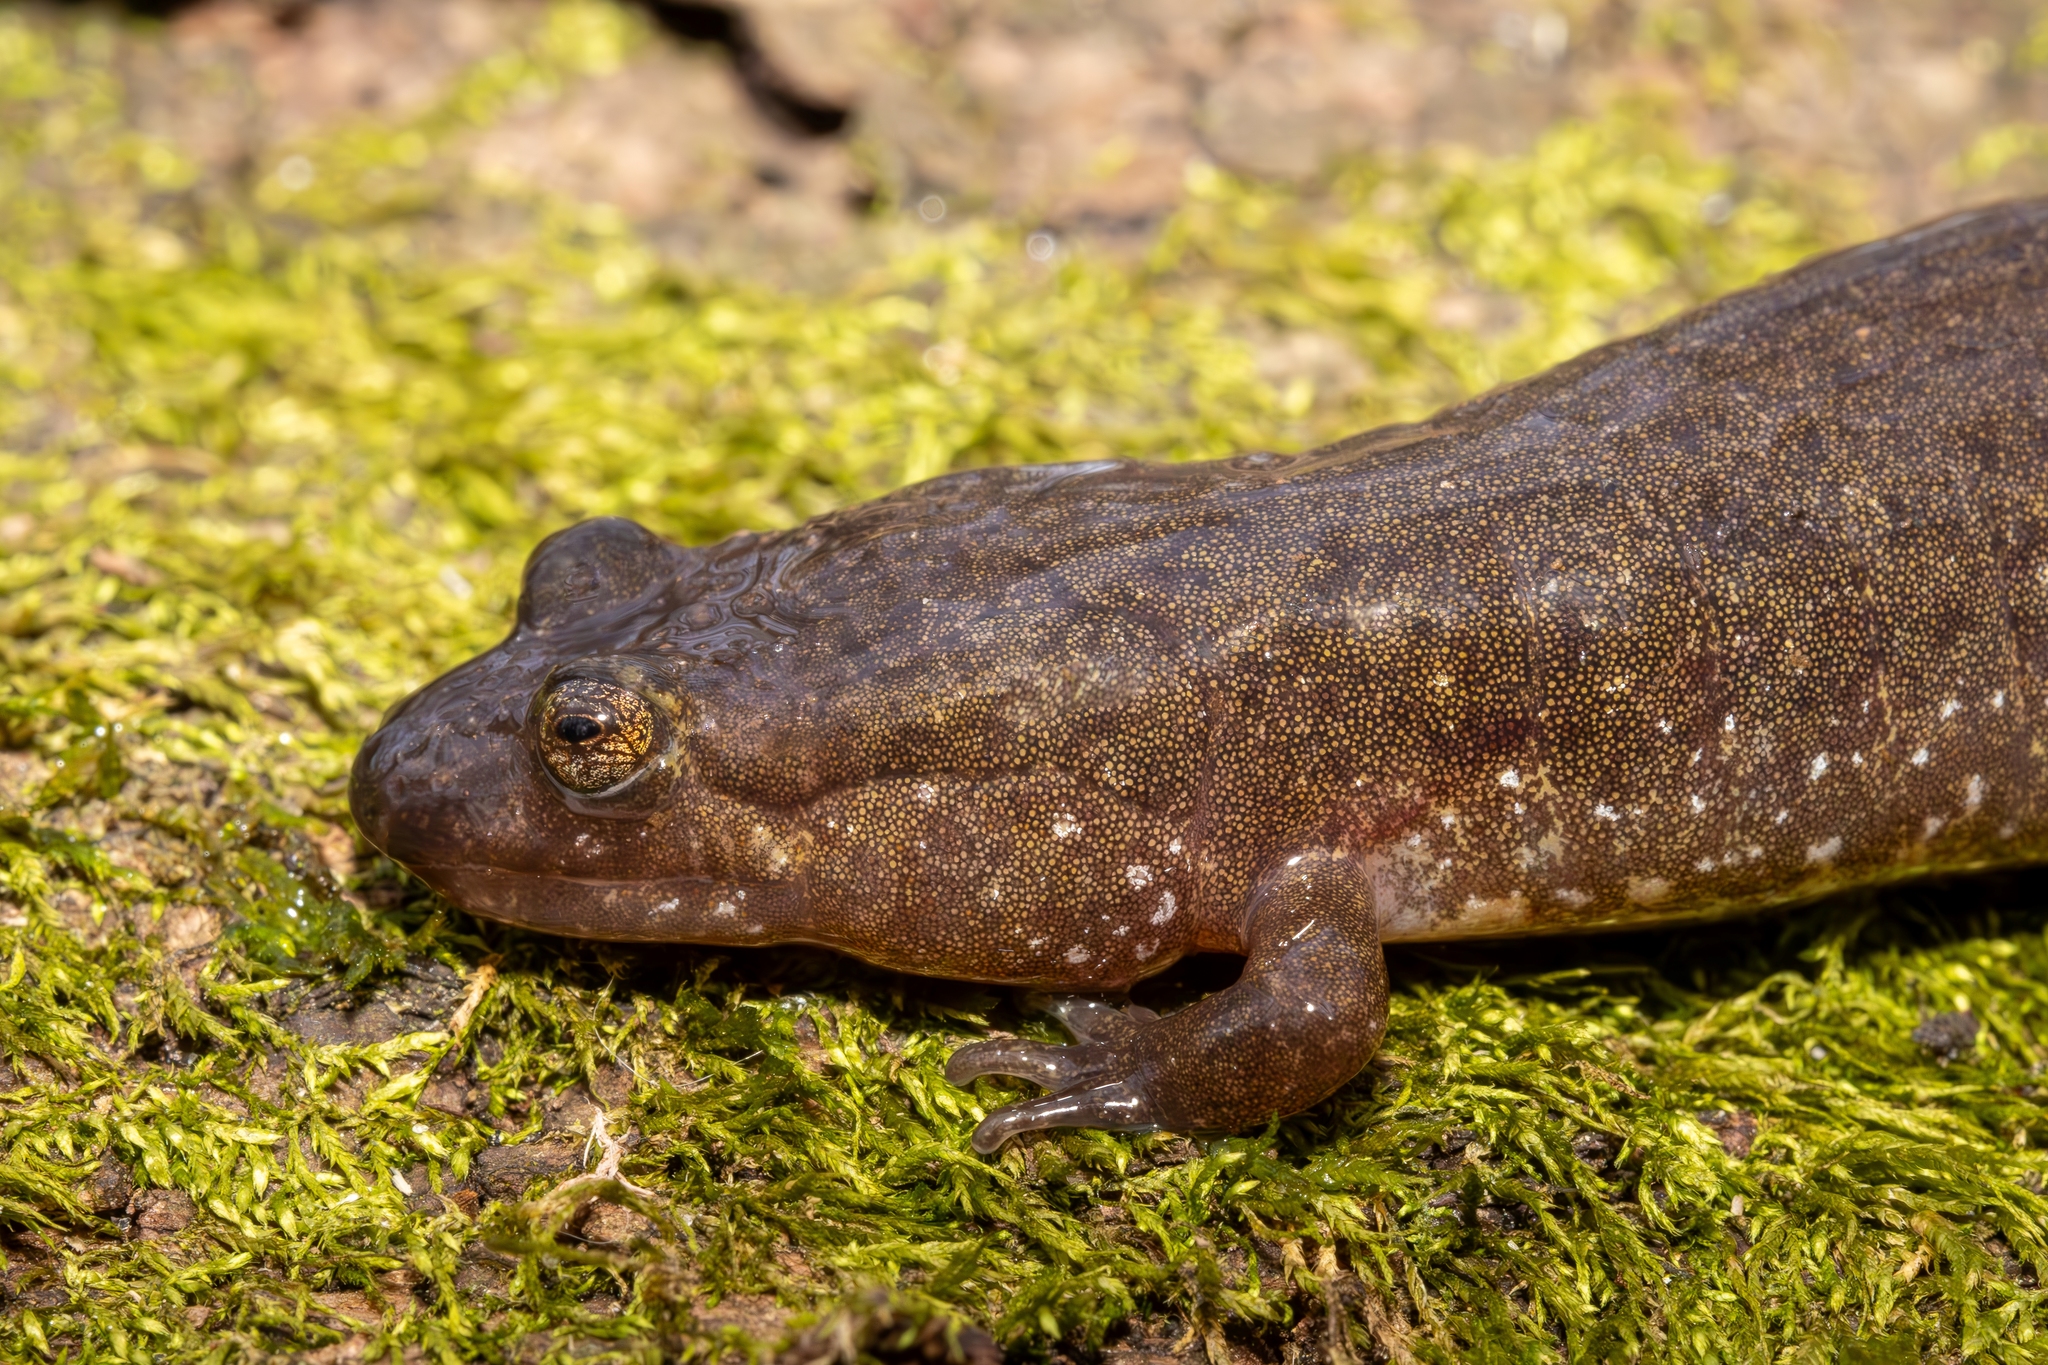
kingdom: Animalia
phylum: Chordata
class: Amphibia
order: Caudata
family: Plethodontidae
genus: Desmognathus
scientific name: Desmognathus
